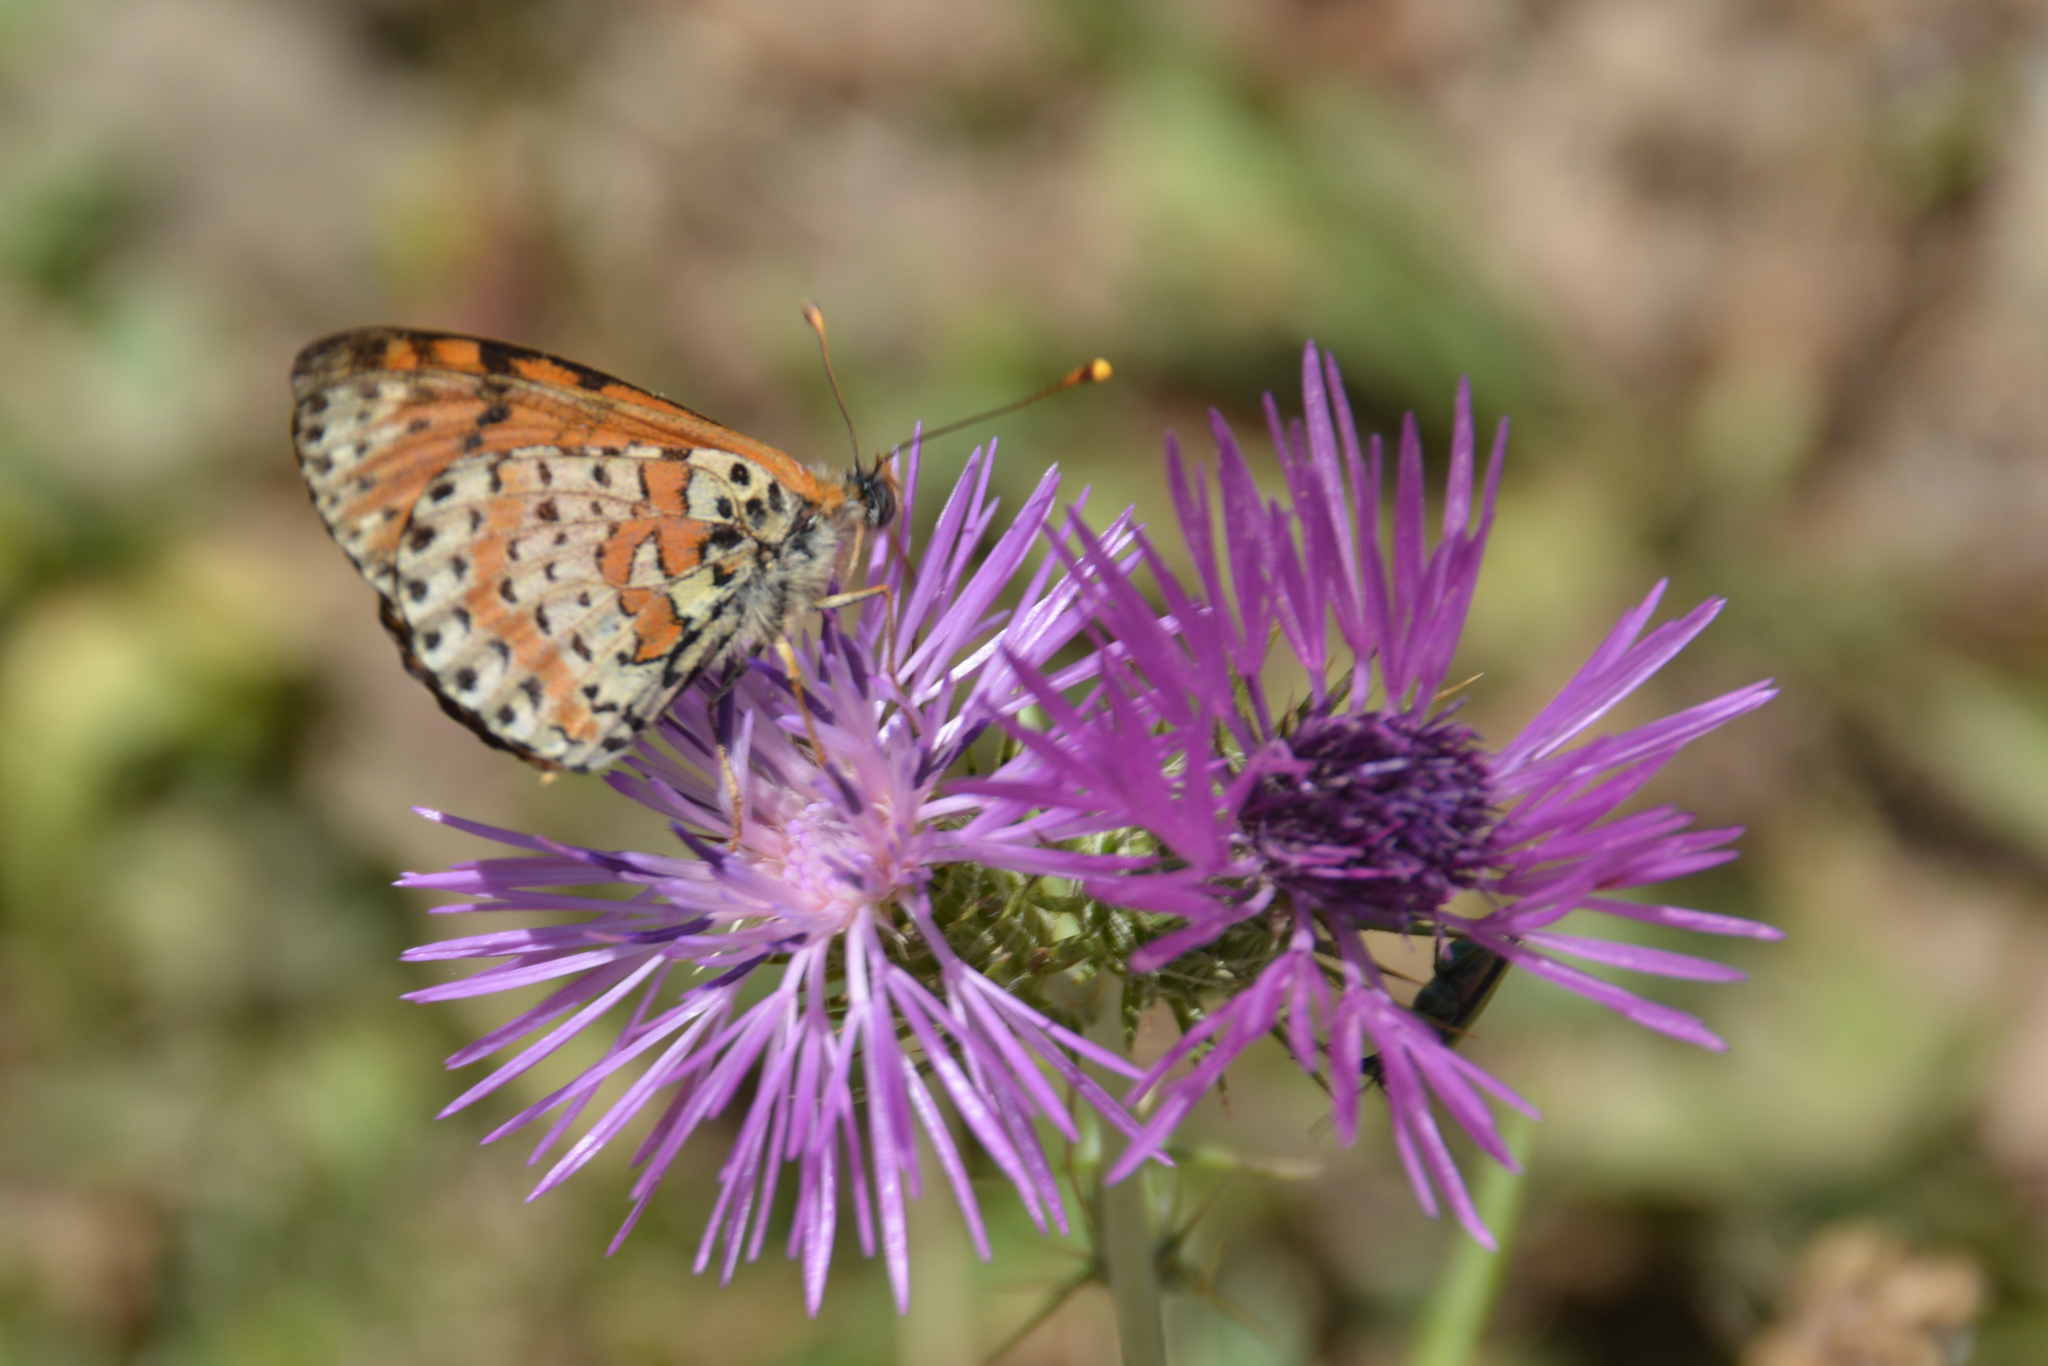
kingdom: Animalia
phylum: Arthropoda
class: Insecta
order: Lepidoptera
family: Nymphalidae
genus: Melitaea
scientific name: Melitaea didyma
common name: Spotted fritillary
